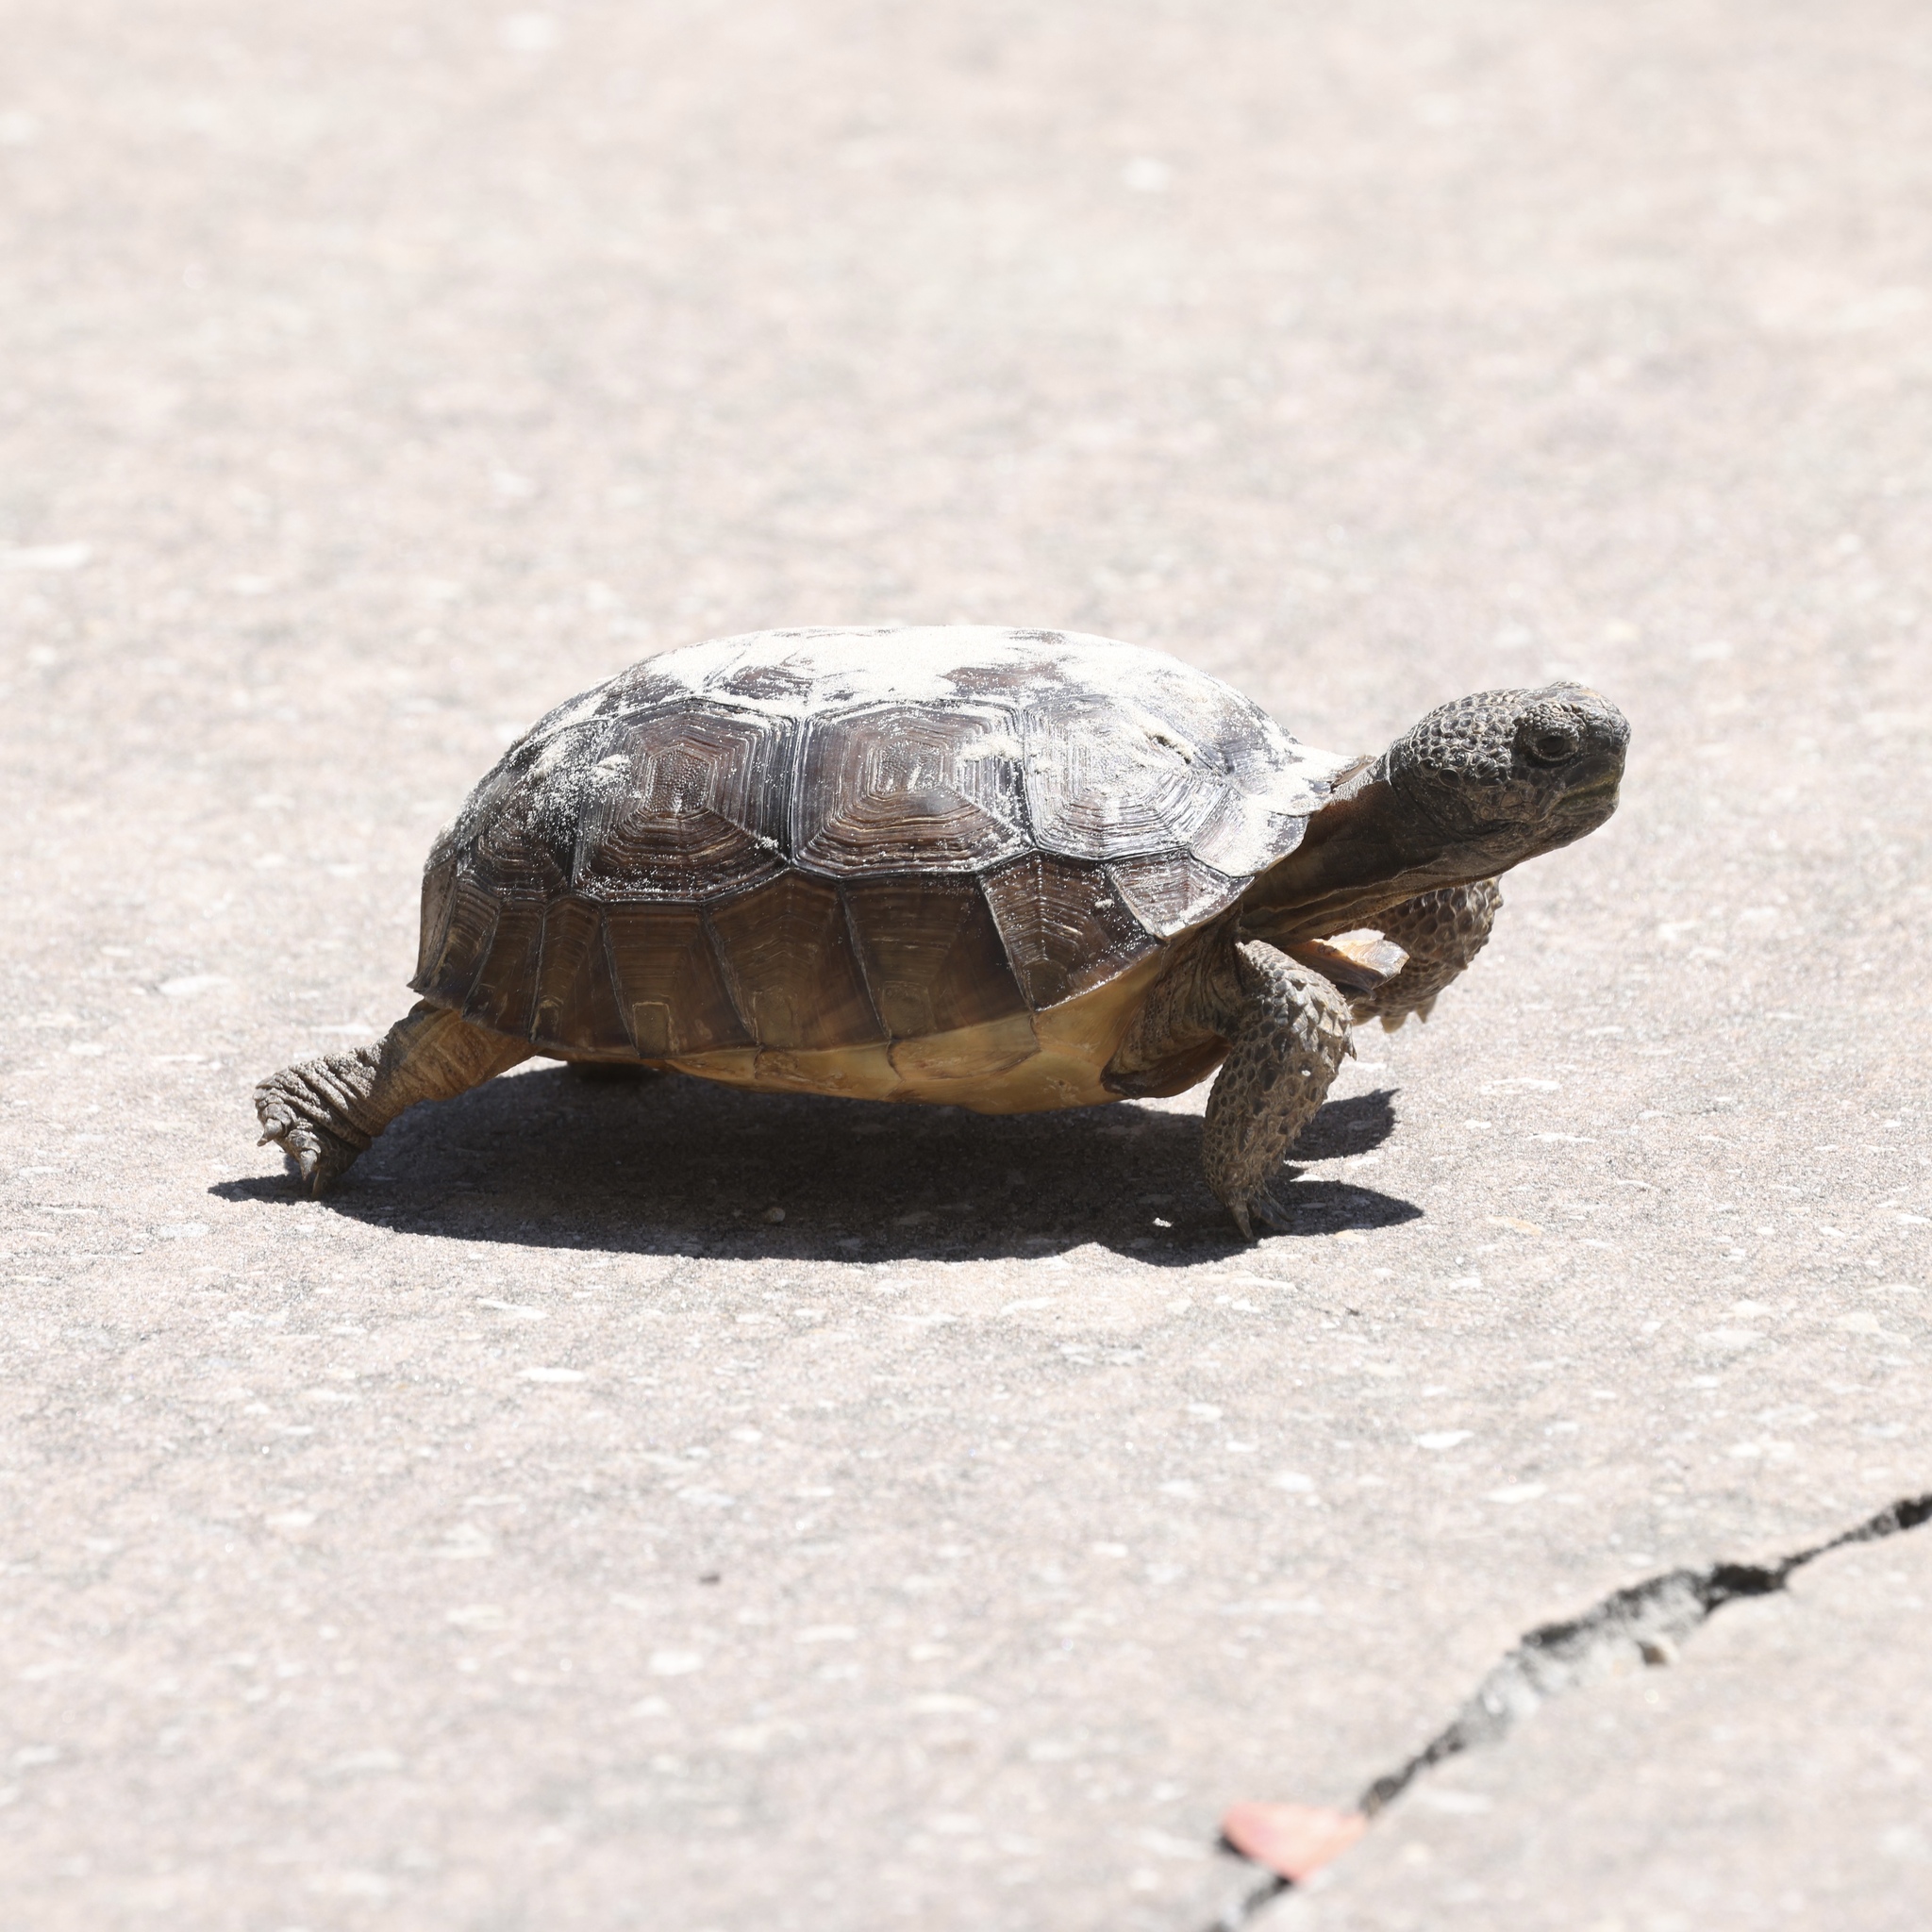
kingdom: Animalia
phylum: Chordata
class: Testudines
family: Testudinidae
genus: Gopherus
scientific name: Gopherus polyphemus
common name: Florida gopher tortoise
